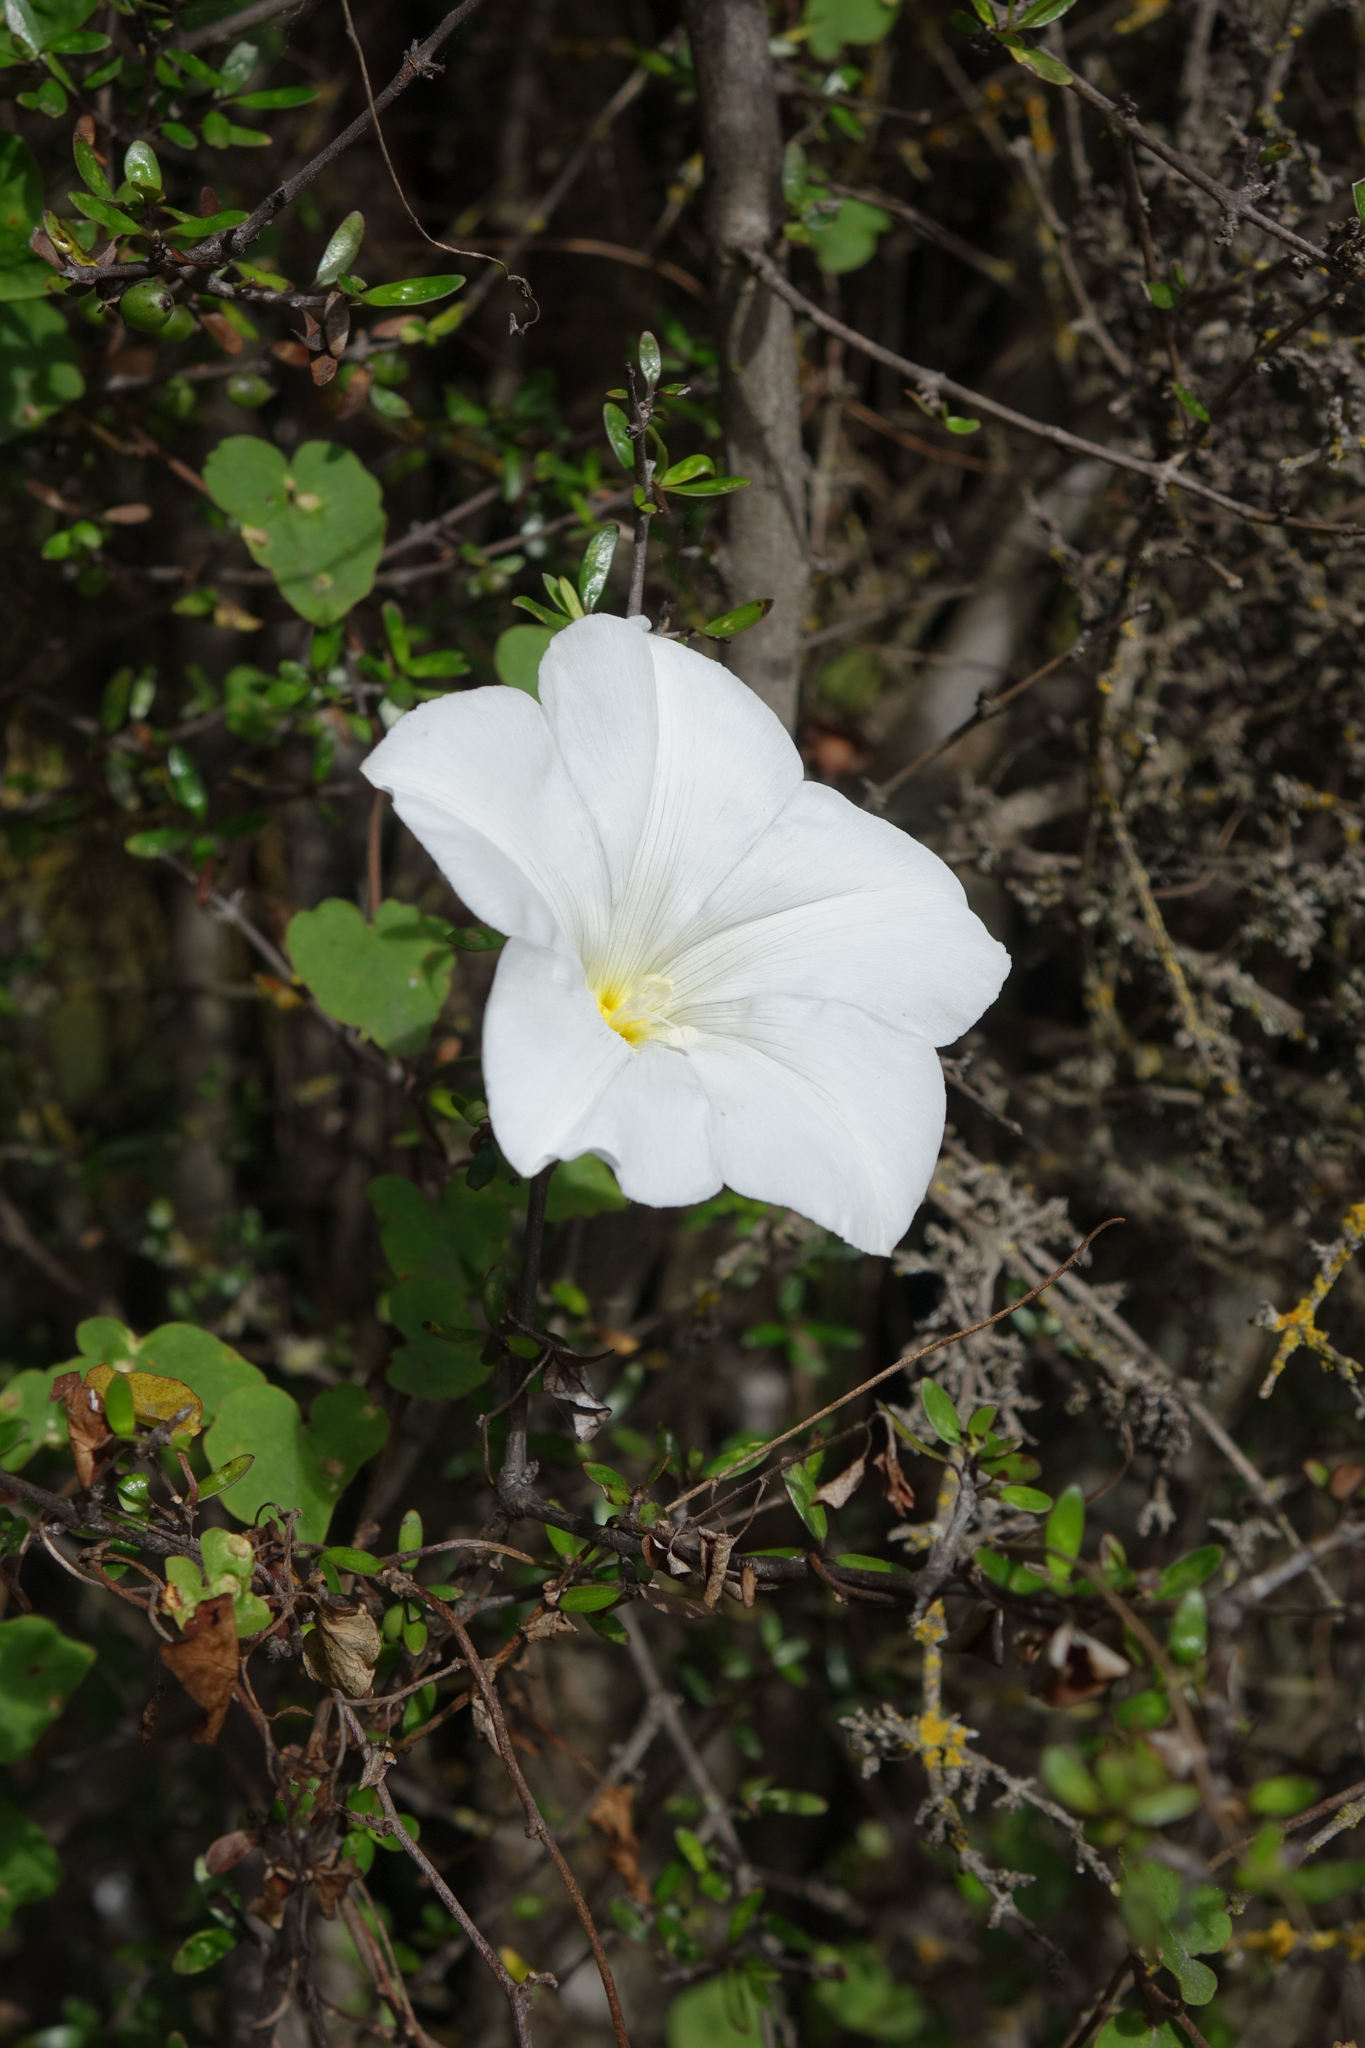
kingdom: Plantae
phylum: Tracheophyta
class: Magnoliopsida
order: Solanales
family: Convolvulaceae
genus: Calystegia
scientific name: Calystegia tuguriorum
